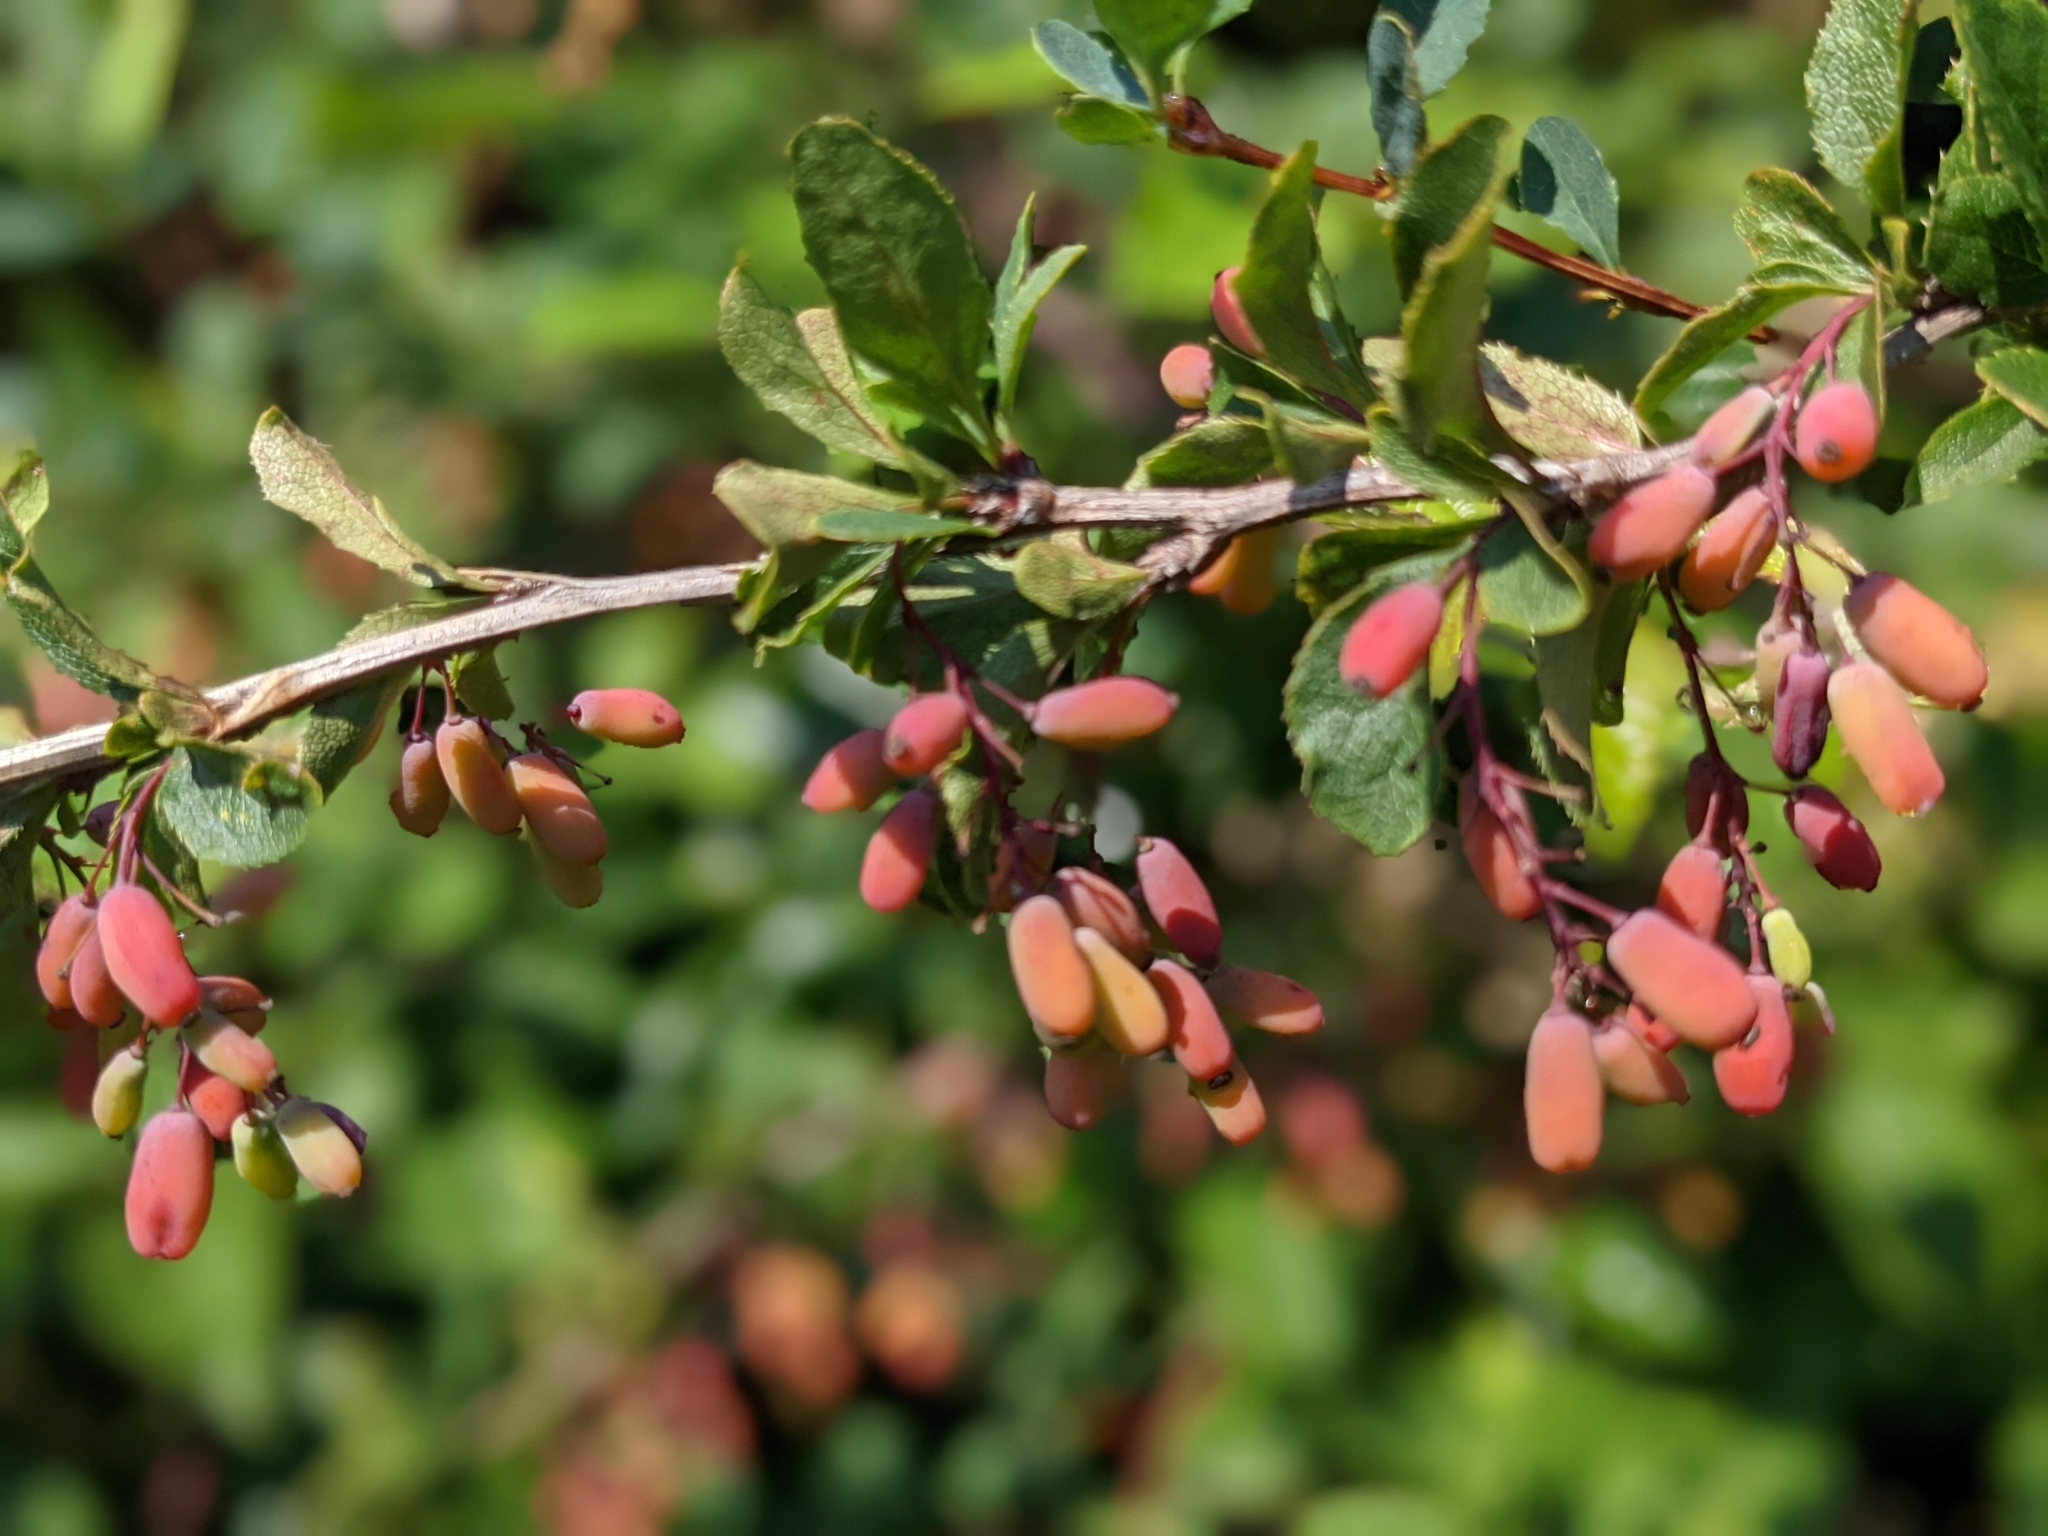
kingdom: Plantae
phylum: Tracheophyta
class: Magnoliopsida
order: Ranunculales
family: Berberidaceae
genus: Berberis
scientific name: Berberis vulgaris
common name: Barberry
